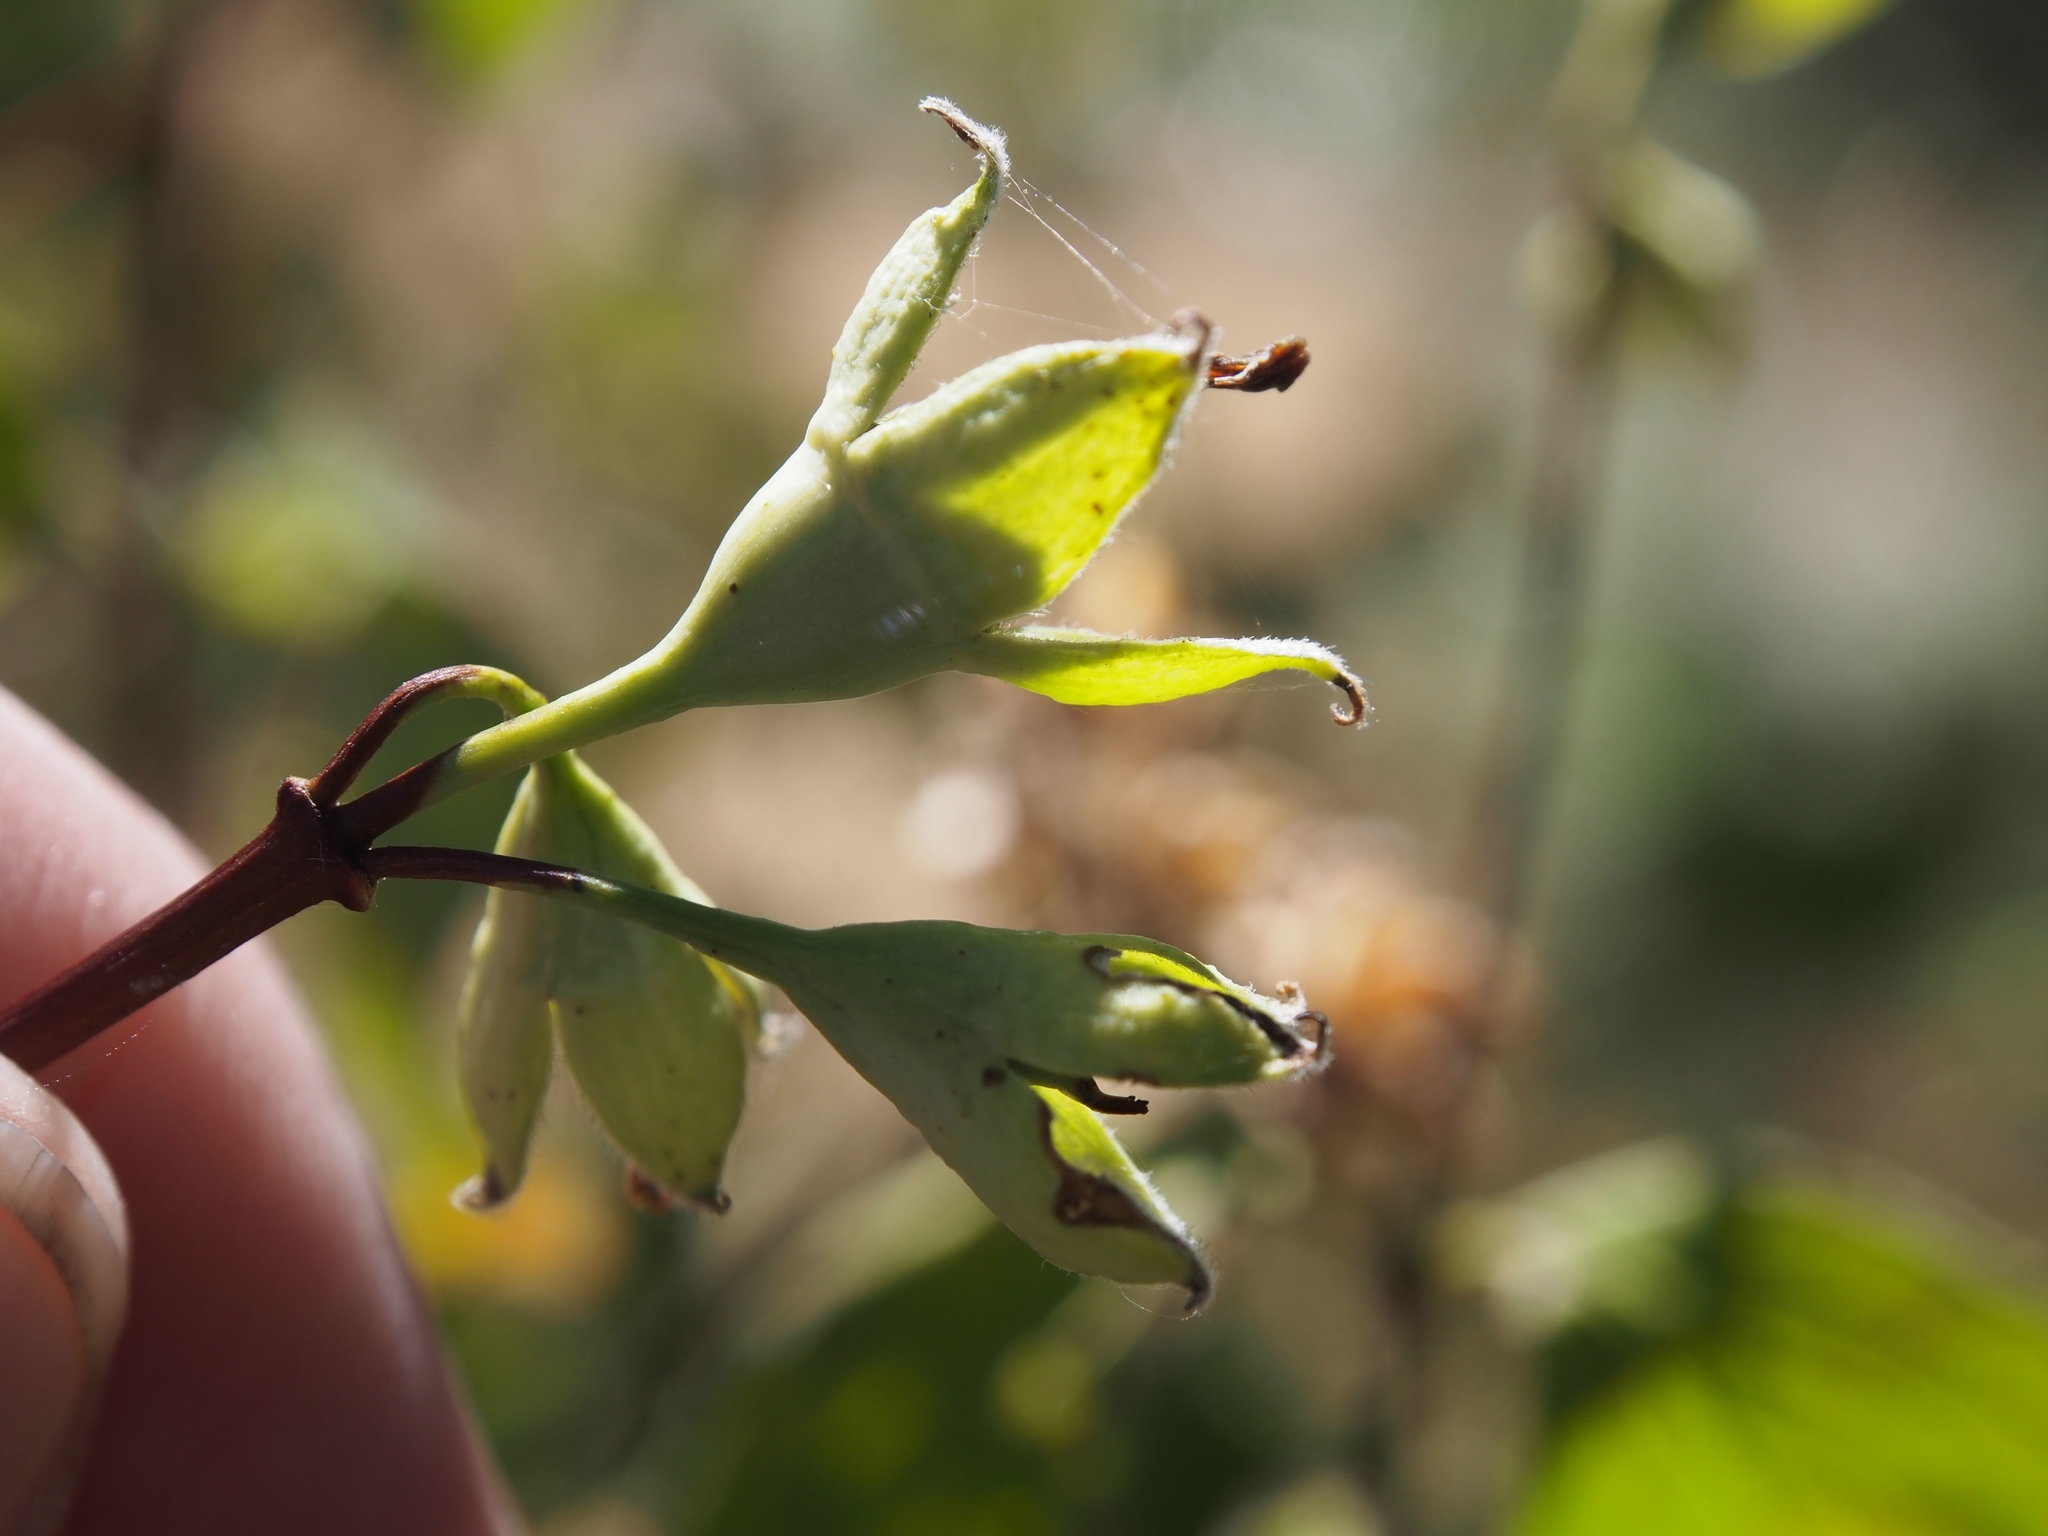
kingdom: Plantae
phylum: Tracheophyta
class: Magnoliopsida
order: Cornales
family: Hydrangeaceae
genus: Philadelphus
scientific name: Philadelphus lewisii
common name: Lewis's mock orange
